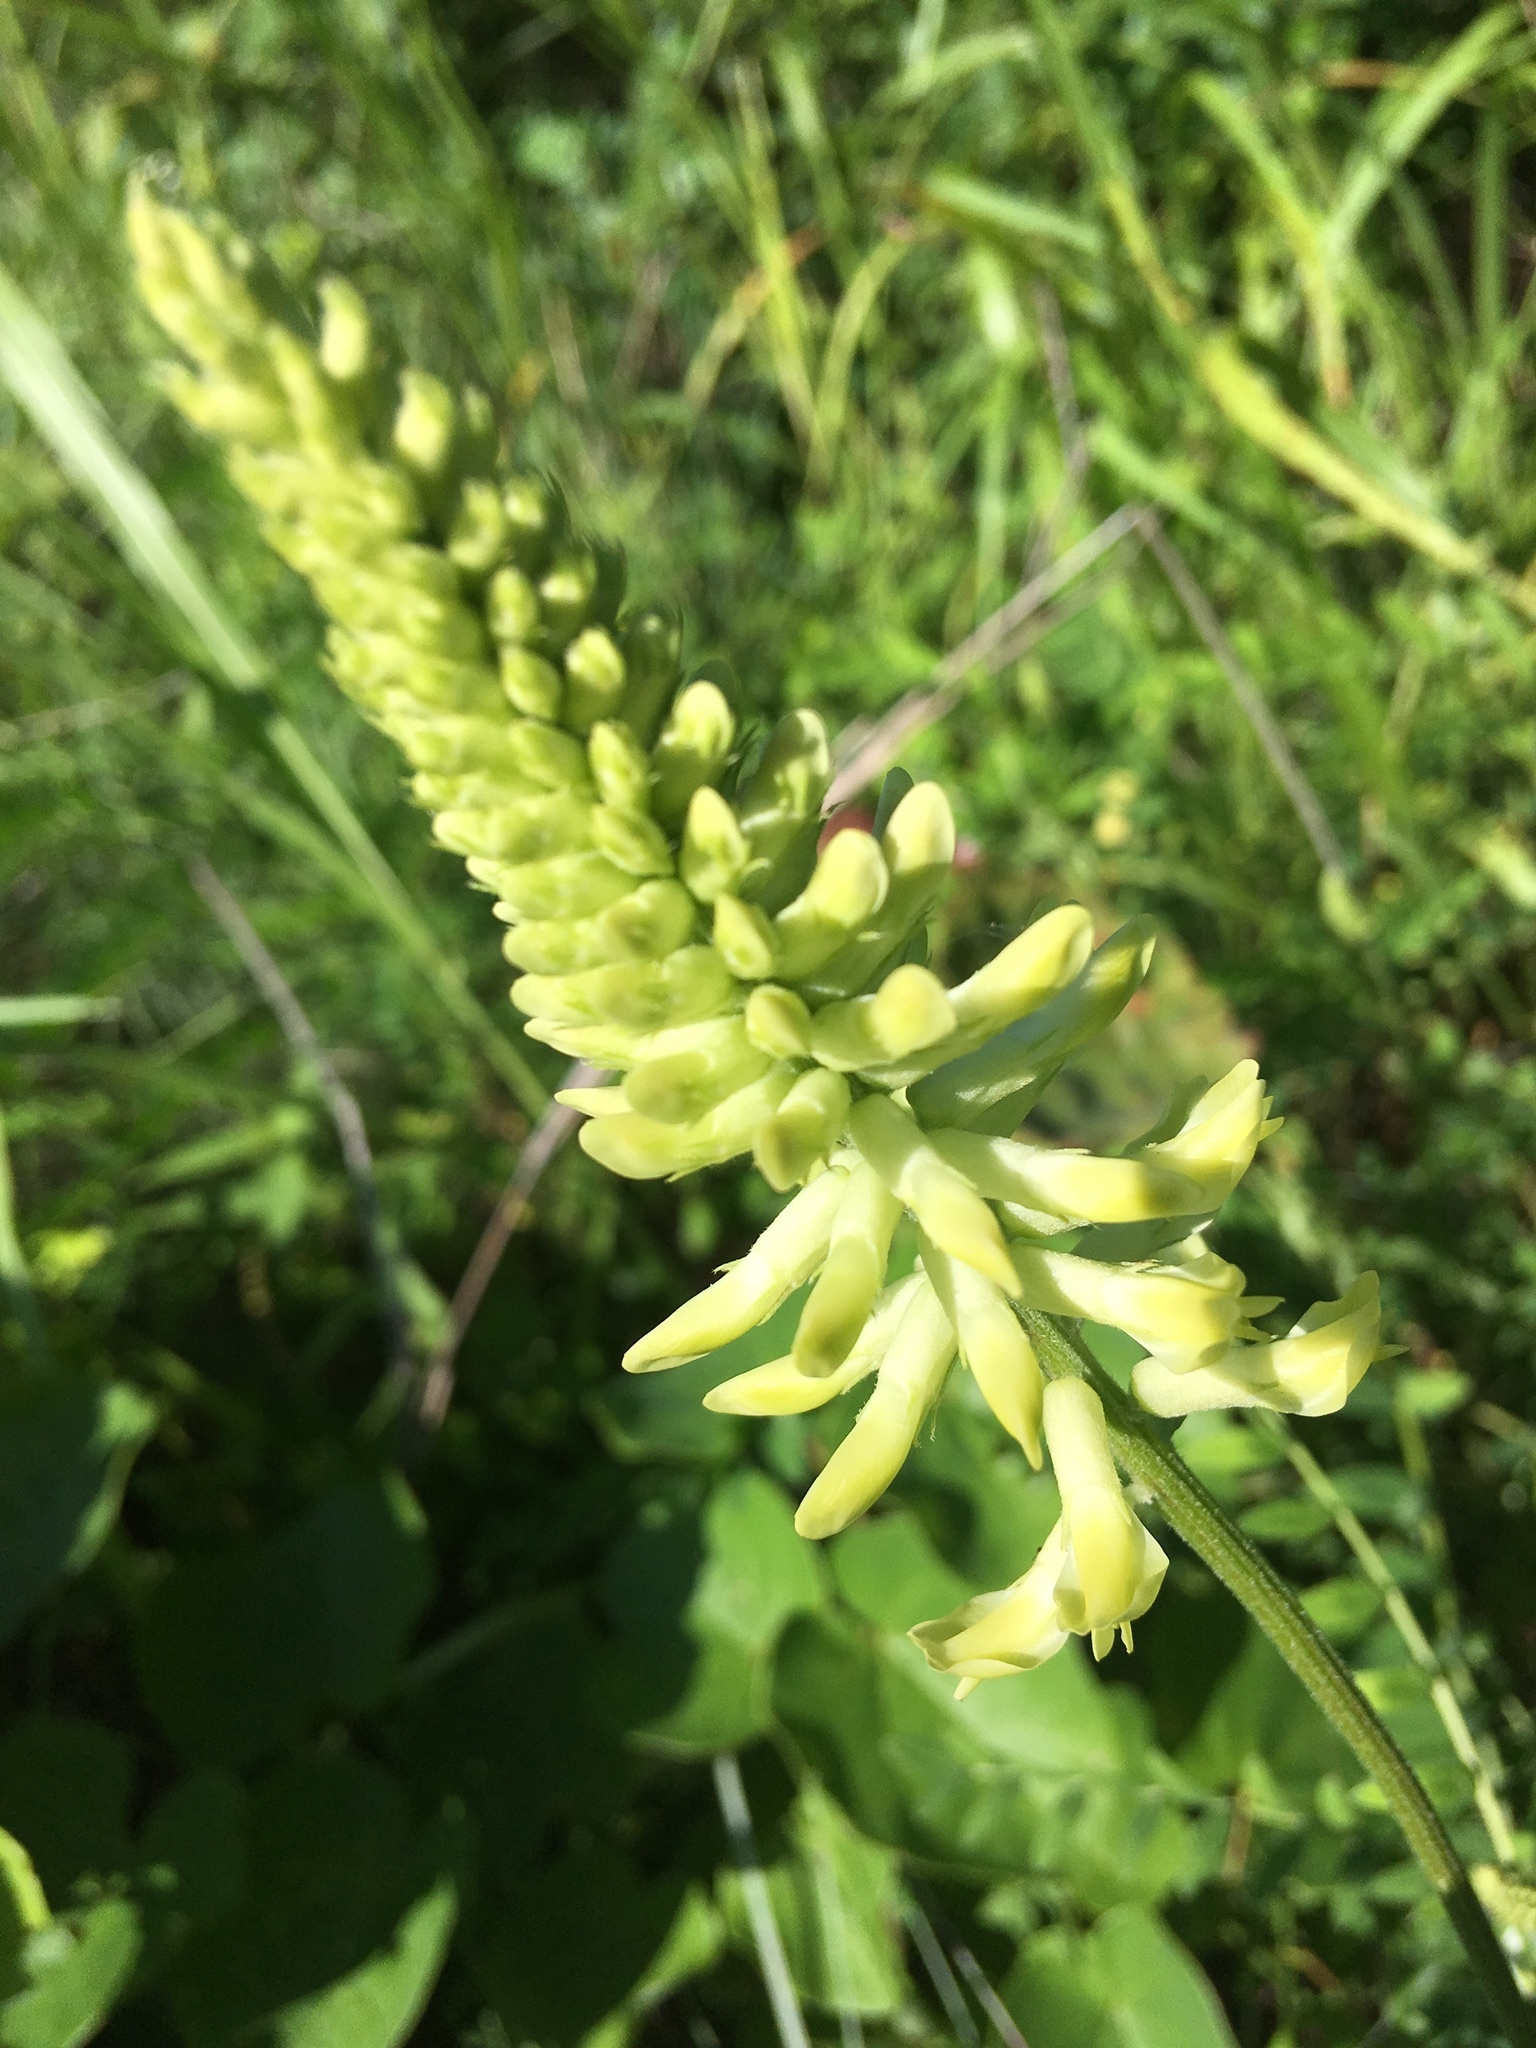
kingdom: Plantae
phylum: Tracheophyta
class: Magnoliopsida
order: Fabales
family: Fabaceae
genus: Astragalus
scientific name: Astragalus canadensis
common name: Canada milk-vetch
